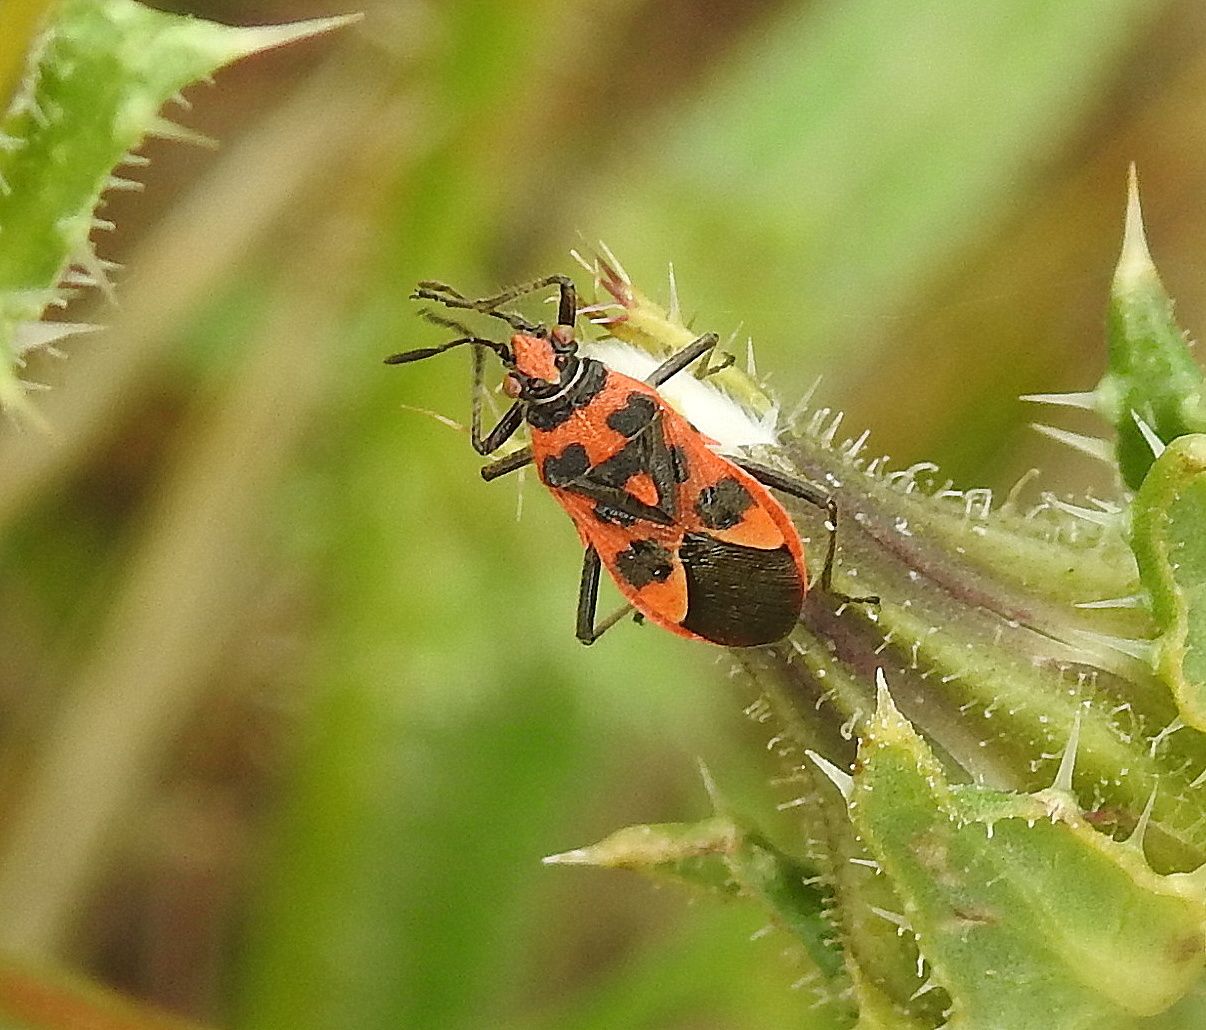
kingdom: Animalia
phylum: Arthropoda
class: Insecta
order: Hemiptera
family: Rhopalidae
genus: Corizus
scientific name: Corizus hyoscyami
